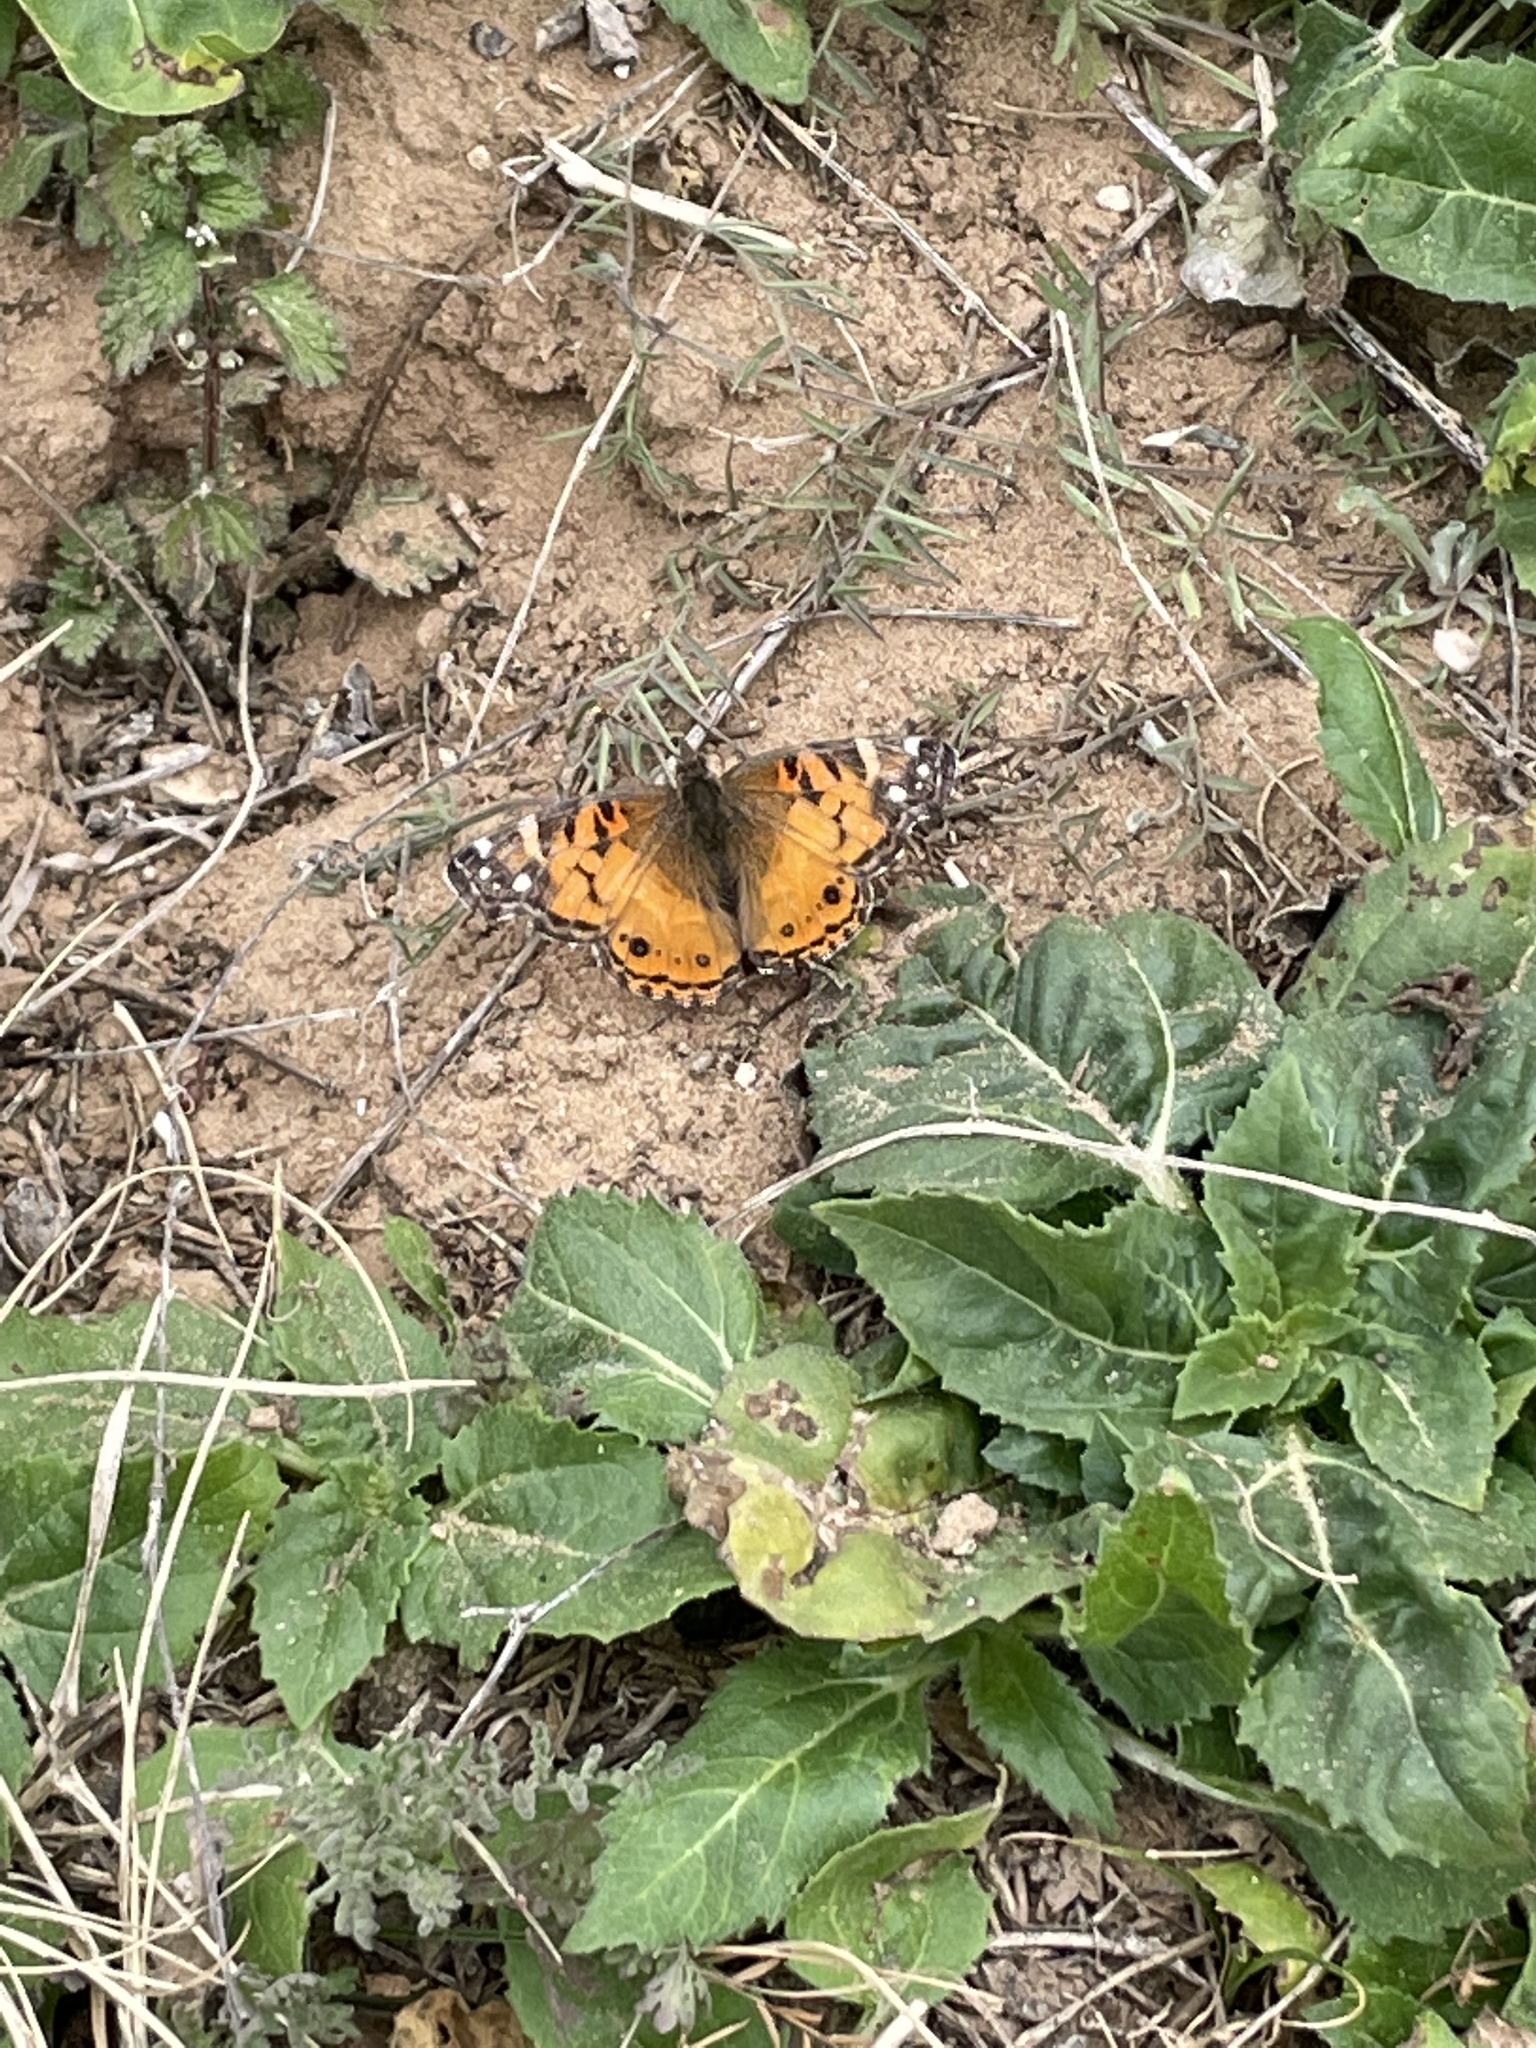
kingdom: Animalia
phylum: Arthropoda
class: Insecta
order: Lepidoptera
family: Nymphalidae
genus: Vanessa
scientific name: Vanessa virginiensis
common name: American lady
